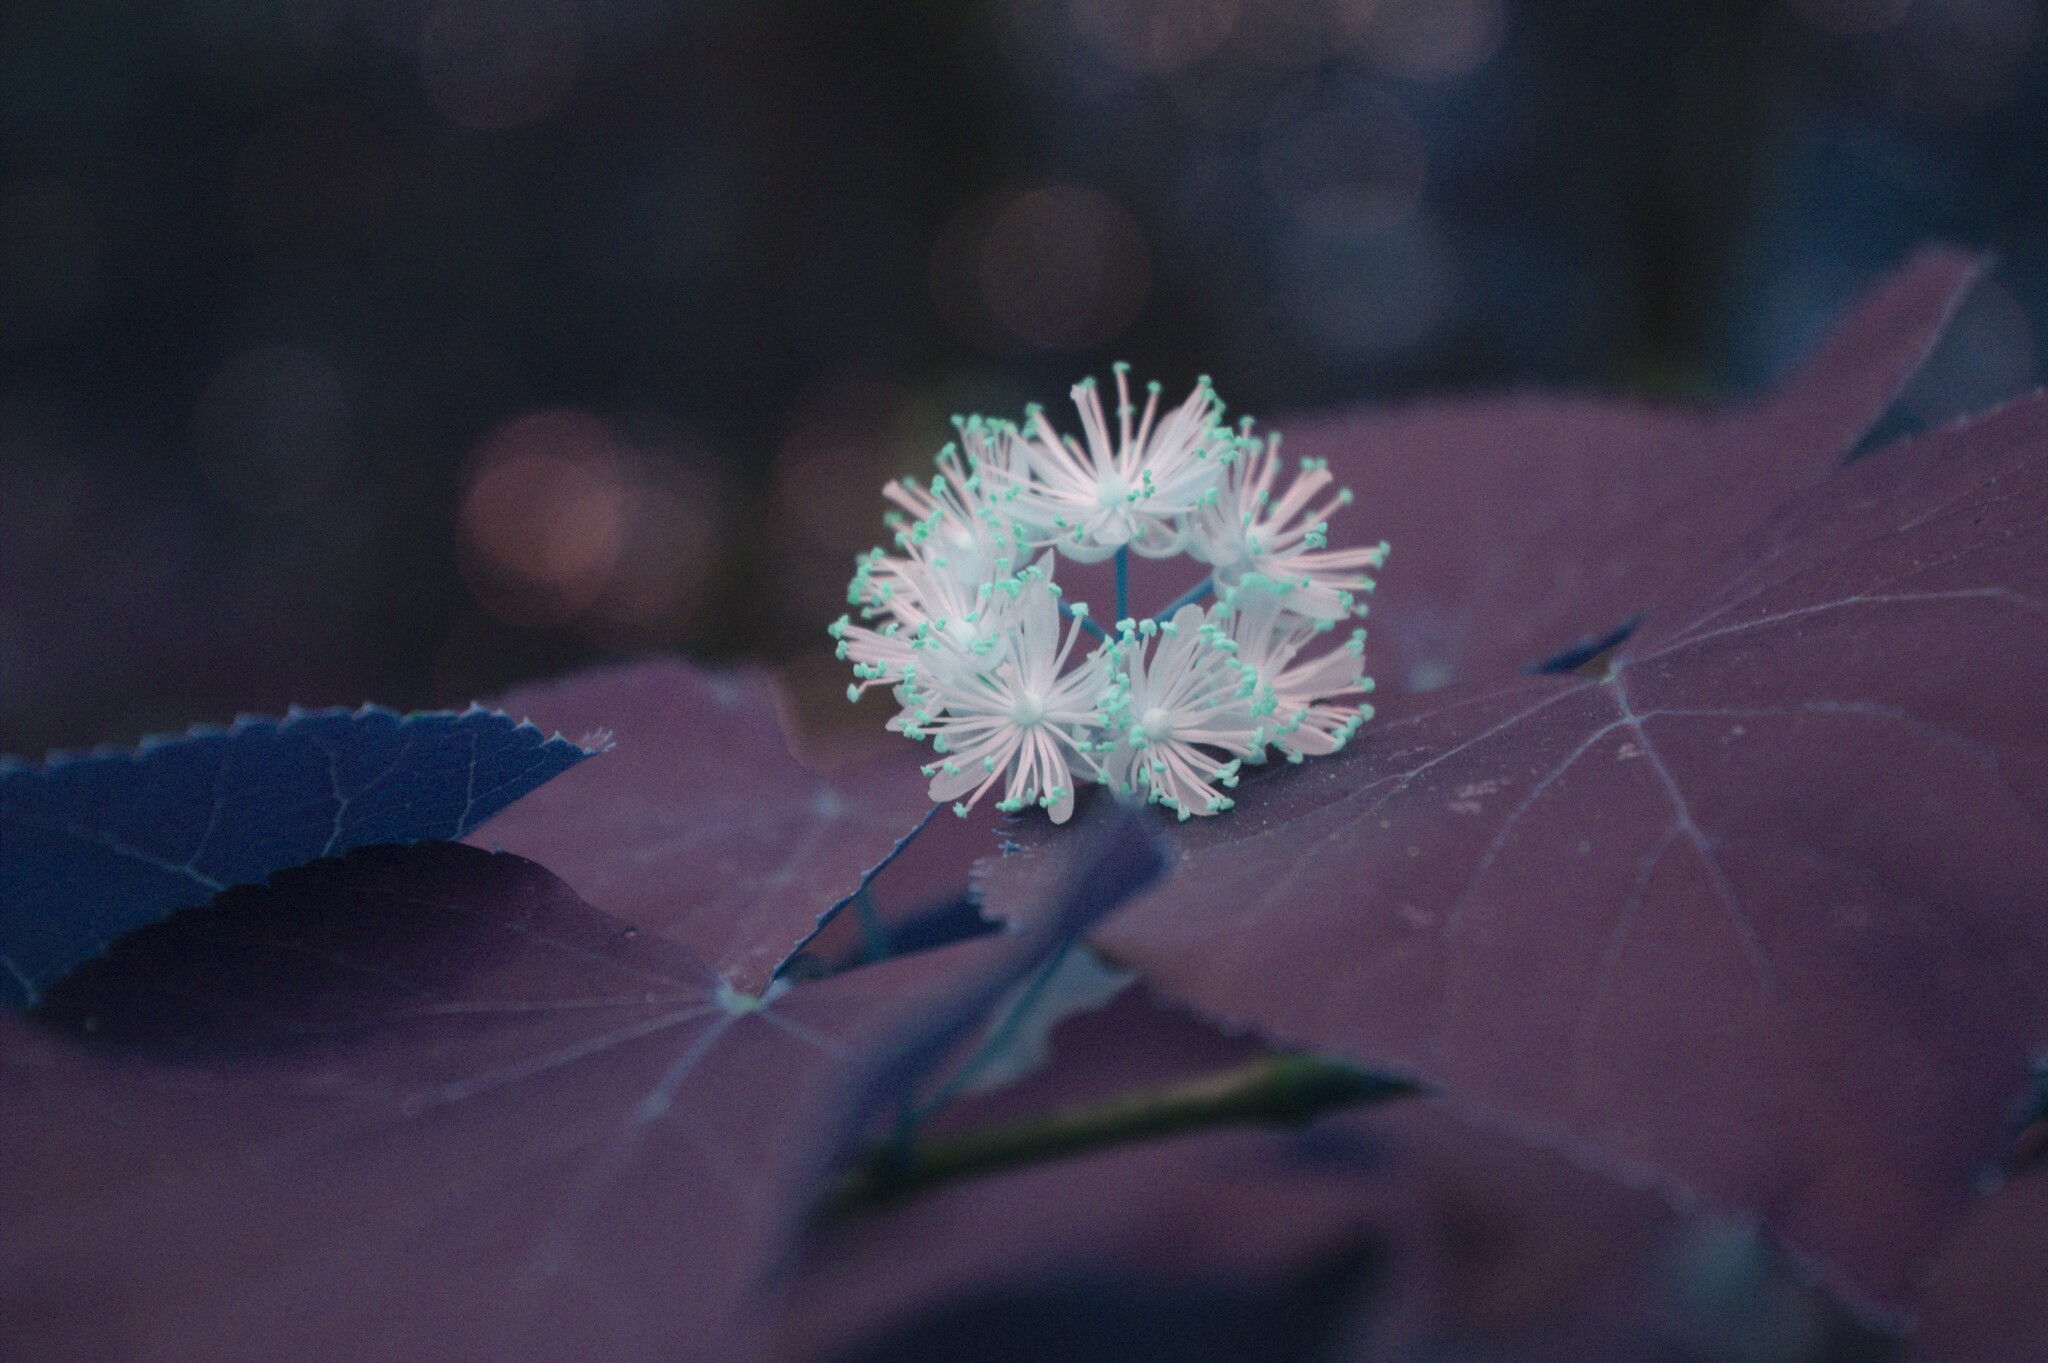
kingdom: Plantae
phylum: Tracheophyta
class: Magnoliopsida
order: Malvales
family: Malvaceae
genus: Tilia
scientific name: Tilia americana
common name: Basswood
